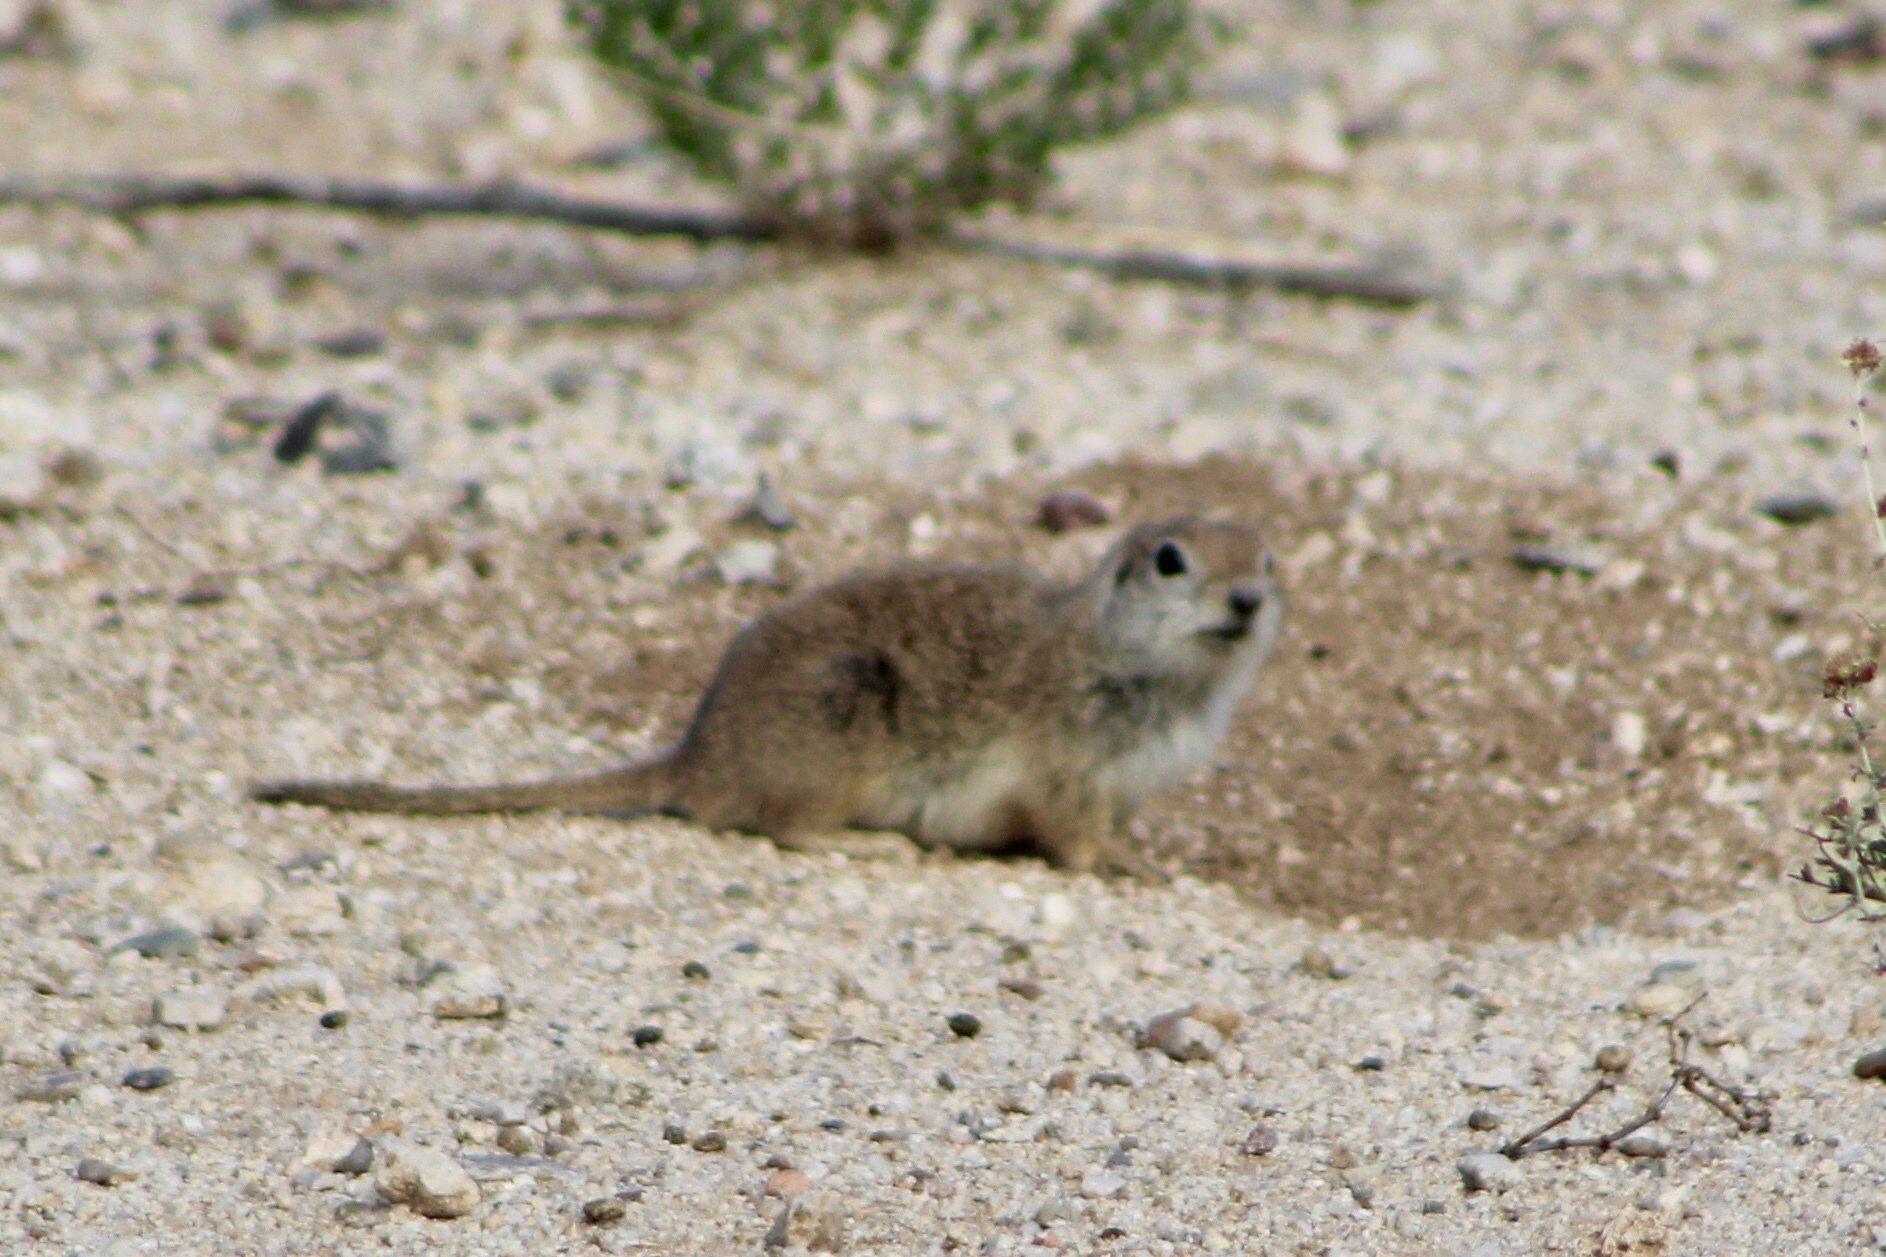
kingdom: Animalia
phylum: Chordata
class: Mammalia
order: Rodentia
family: Sciuridae
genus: Xerospermophilus
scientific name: Xerospermophilus tereticaudus
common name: Round-tailed ground squirrel
